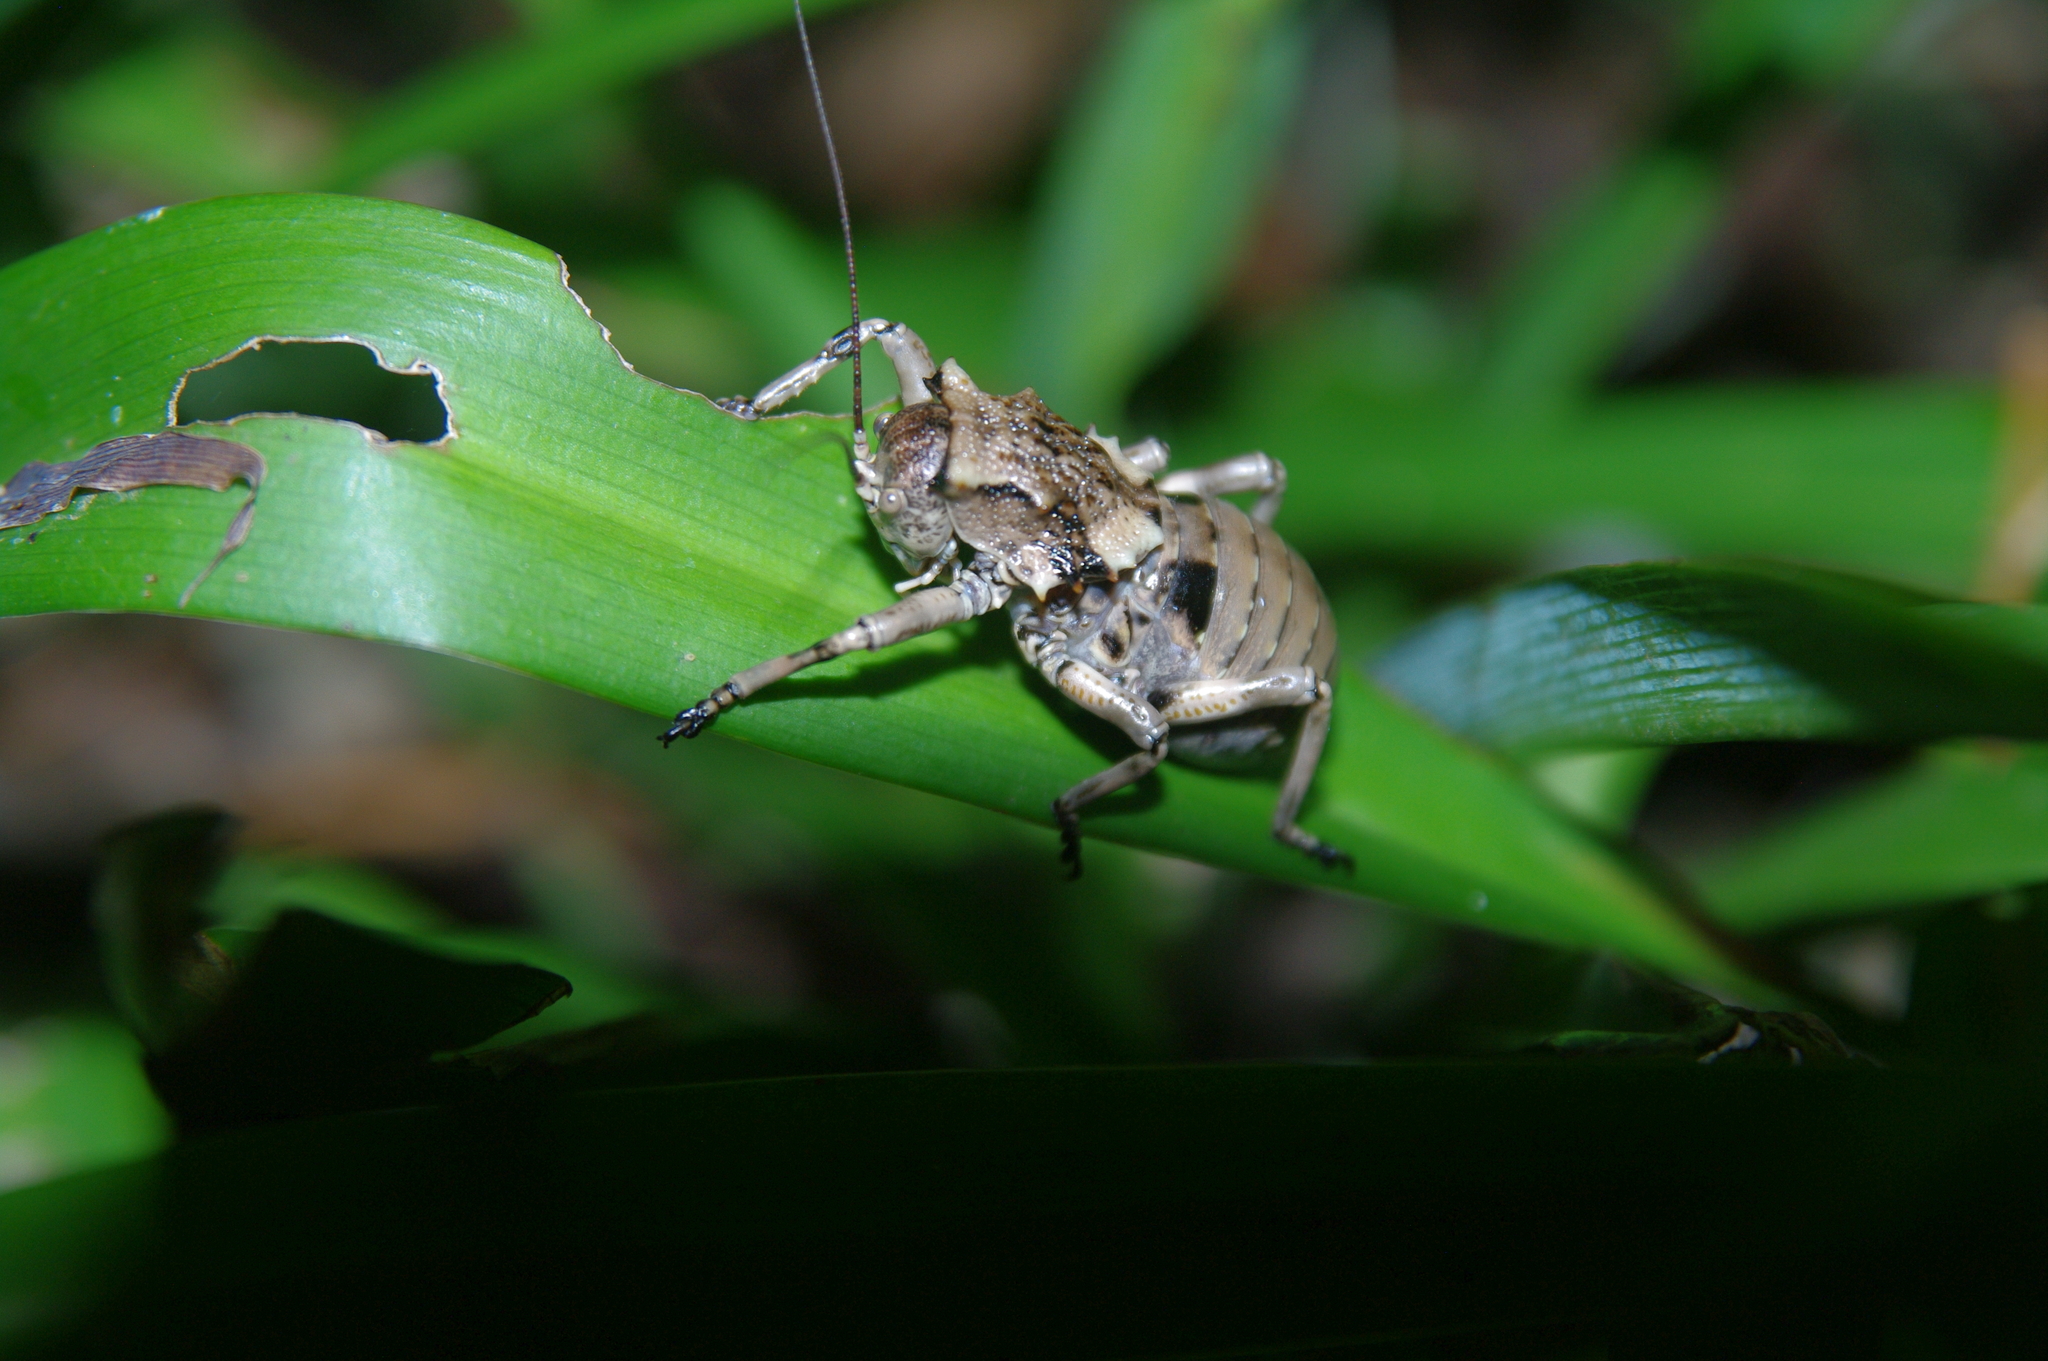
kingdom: Animalia
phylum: Arthropoda
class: Insecta
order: Orthoptera
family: Tettigoniidae
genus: Enyaliopsis
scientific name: Enyaliopsis transvaalensis
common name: Northern armoured katydid
